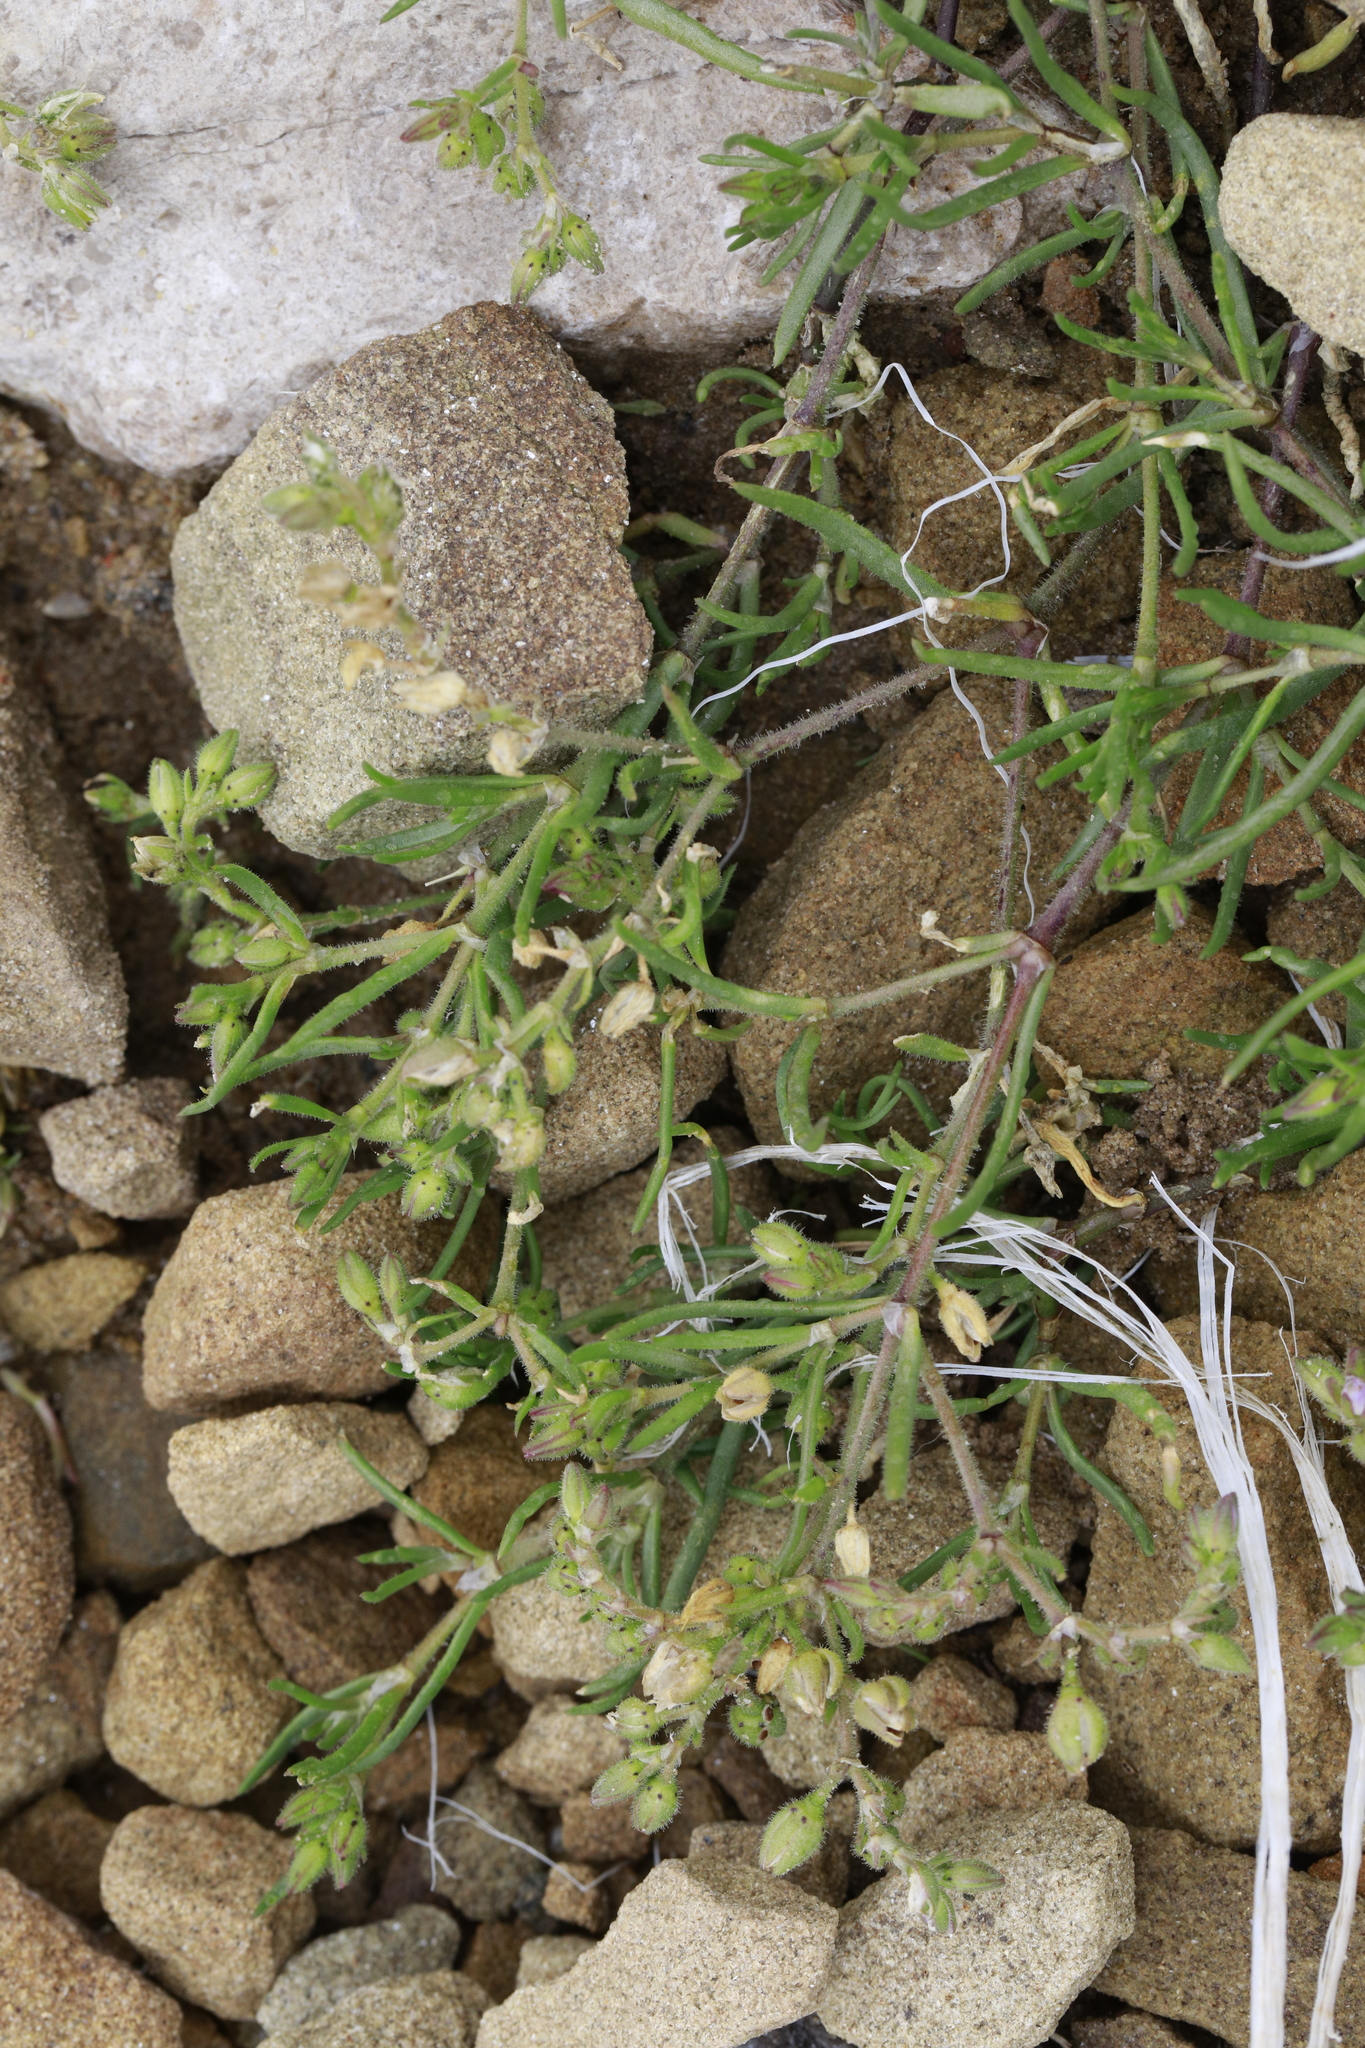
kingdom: Plantae
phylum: Tracheophyta
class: Magnoliopsida
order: Caryophyllales
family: Caryophyllaceae
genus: Spergularia
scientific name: Spergularia marina
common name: Lesser sea-spurrey
